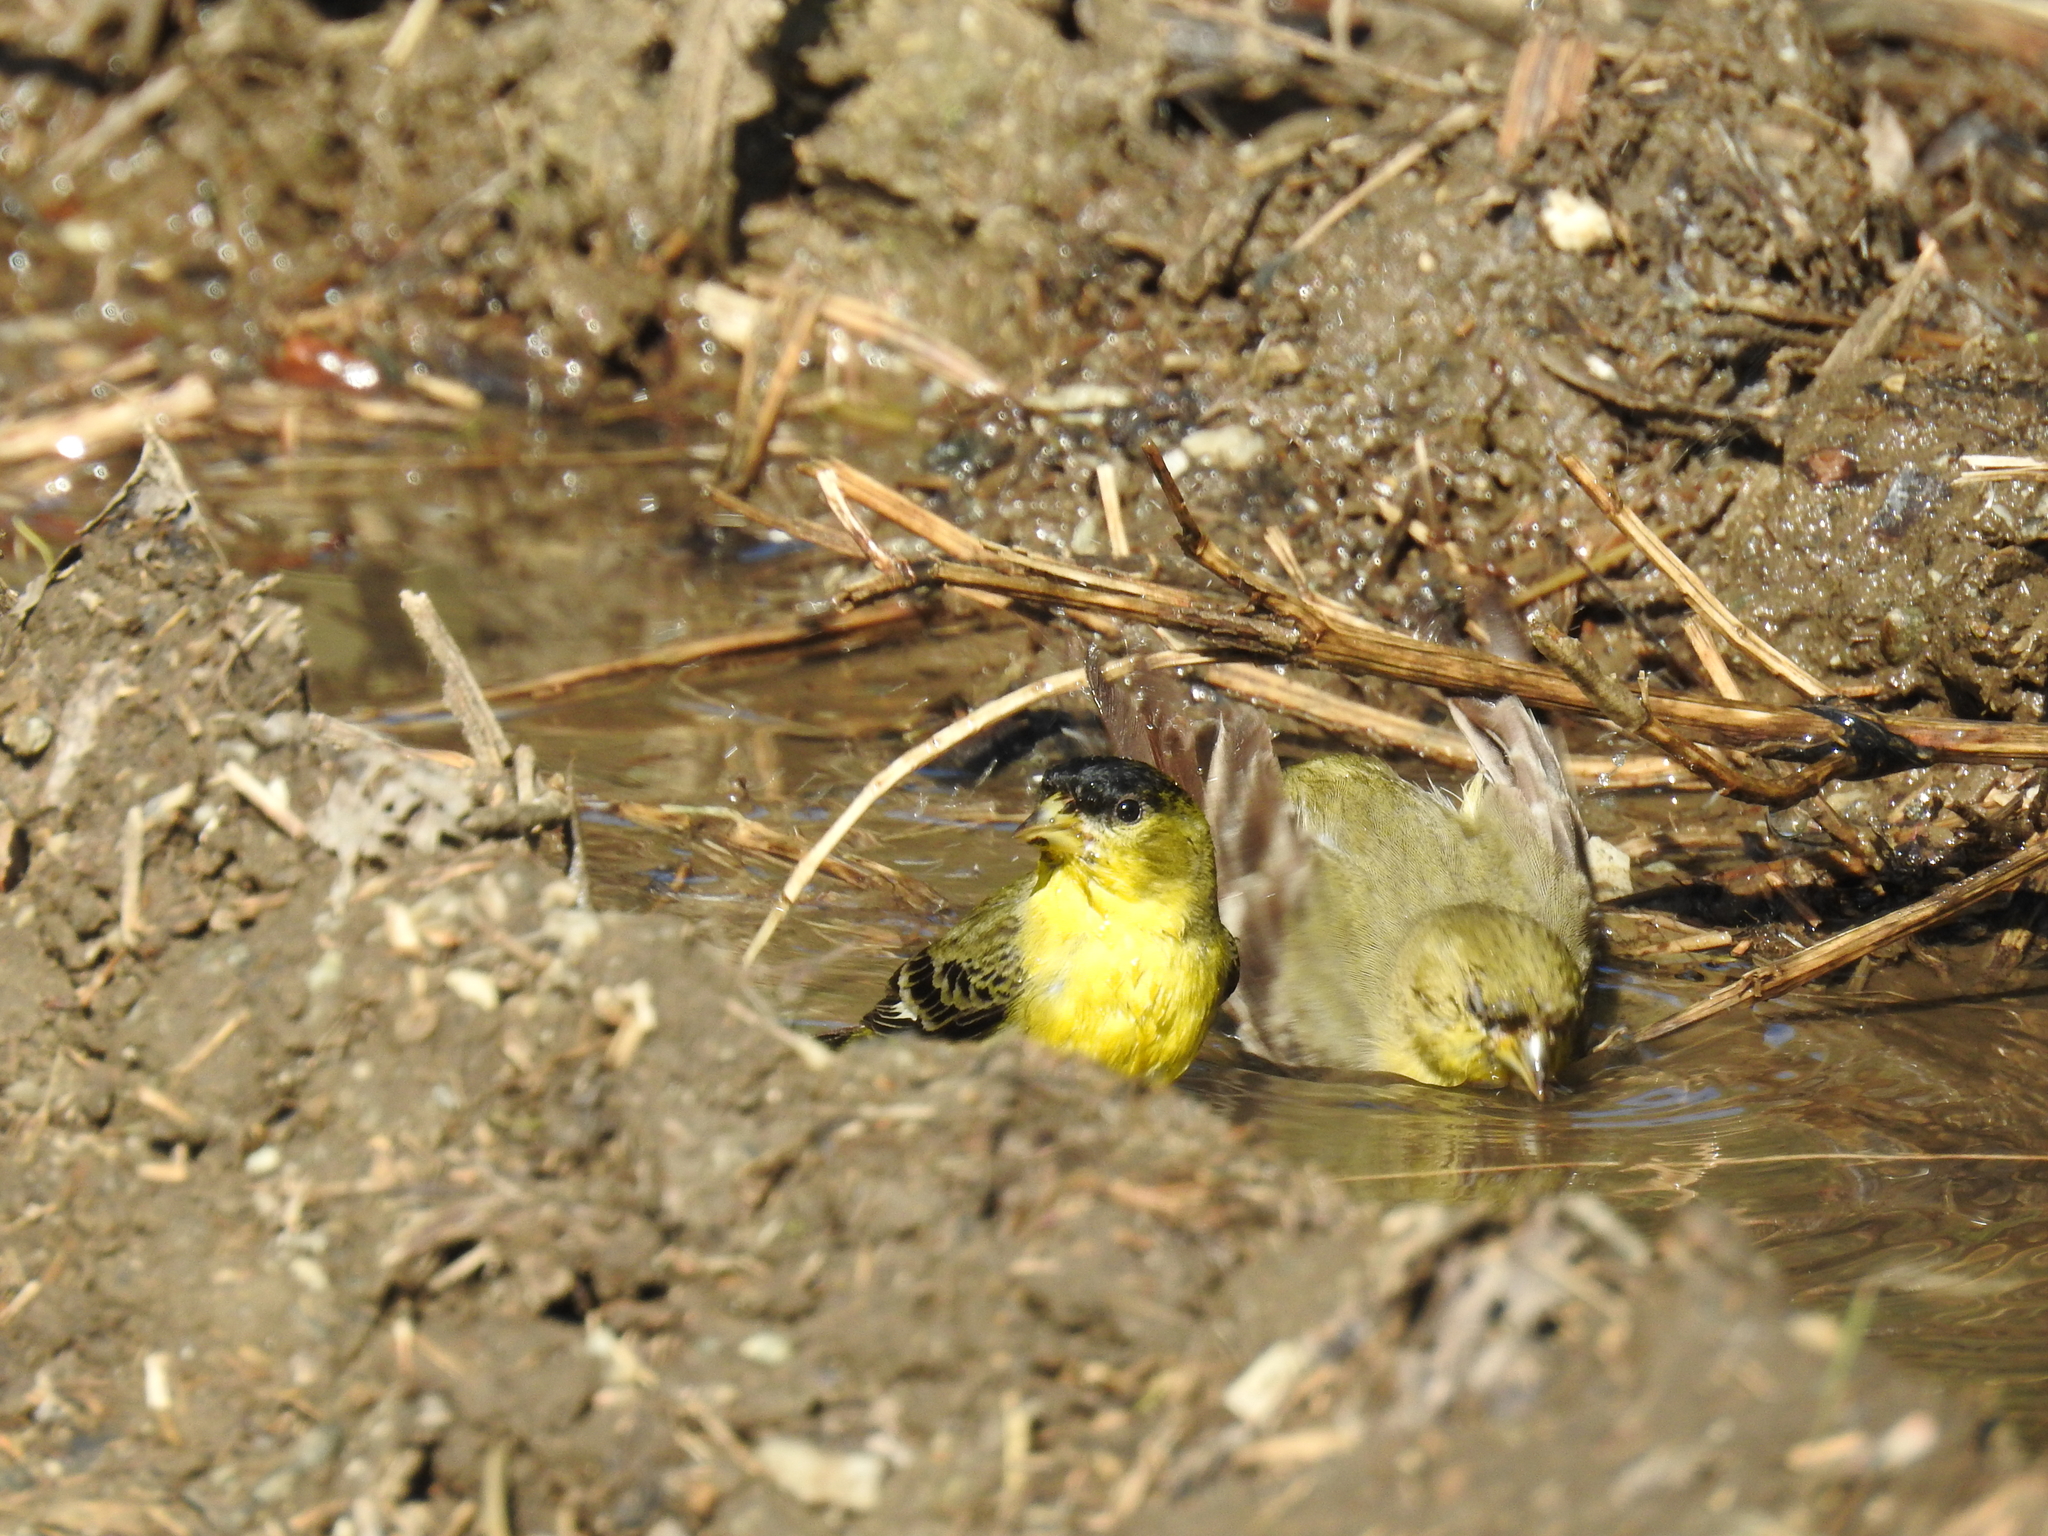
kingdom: Animalia
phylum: Chordata
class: Aves
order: Passeriformes
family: Fringillidae
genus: Spinus
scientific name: Spinus psaltria
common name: Lesser goldfinch
